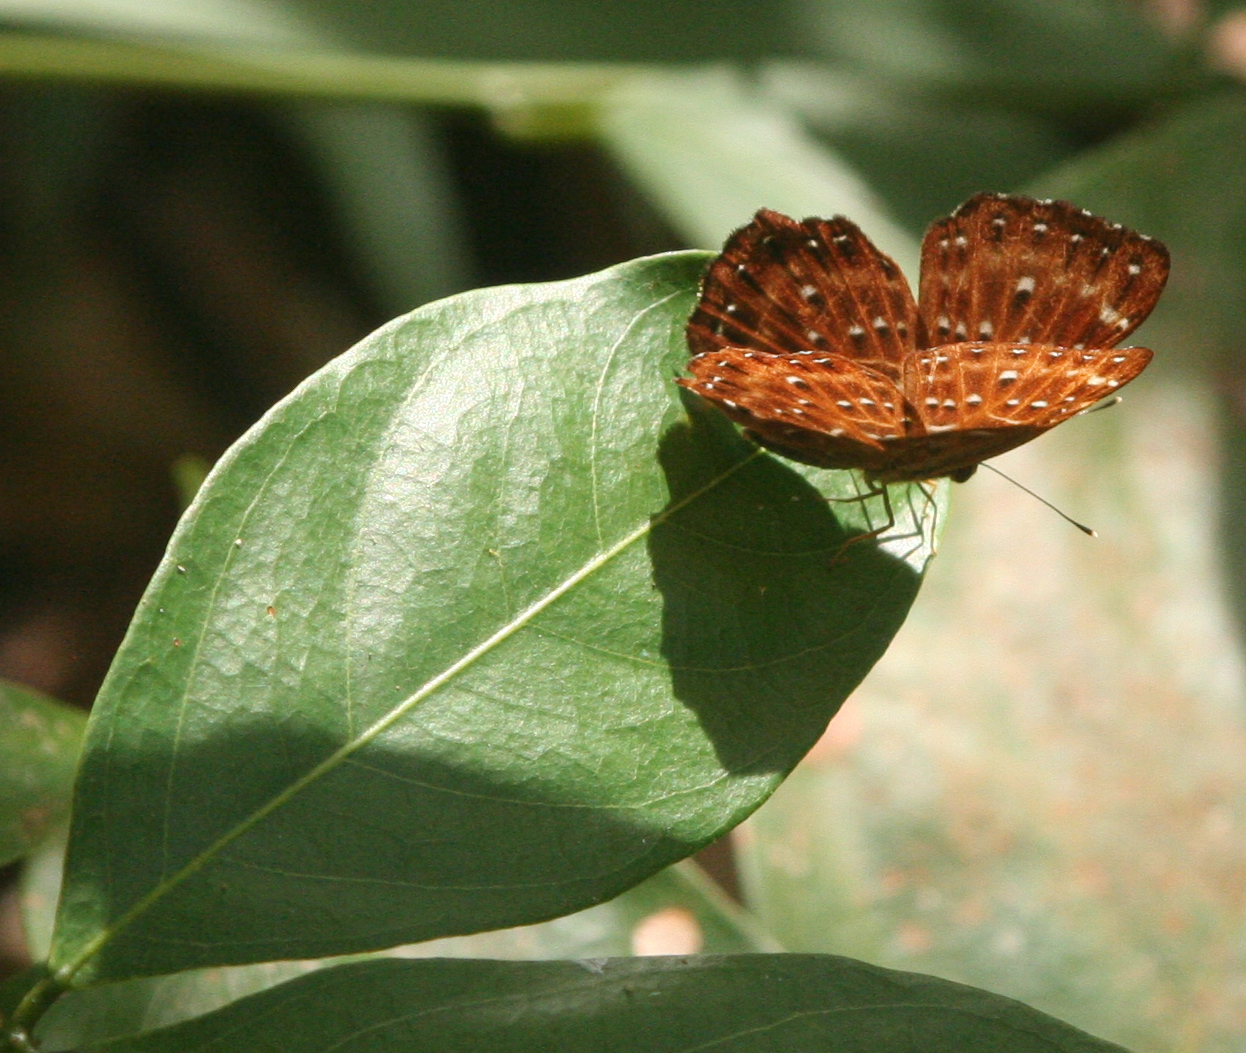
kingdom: Animalia
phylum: Arthropoda
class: Insecta
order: Lepidoptera
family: Riodinidae
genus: Zemeros
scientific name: Zemeros flegyas
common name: Punchinello
